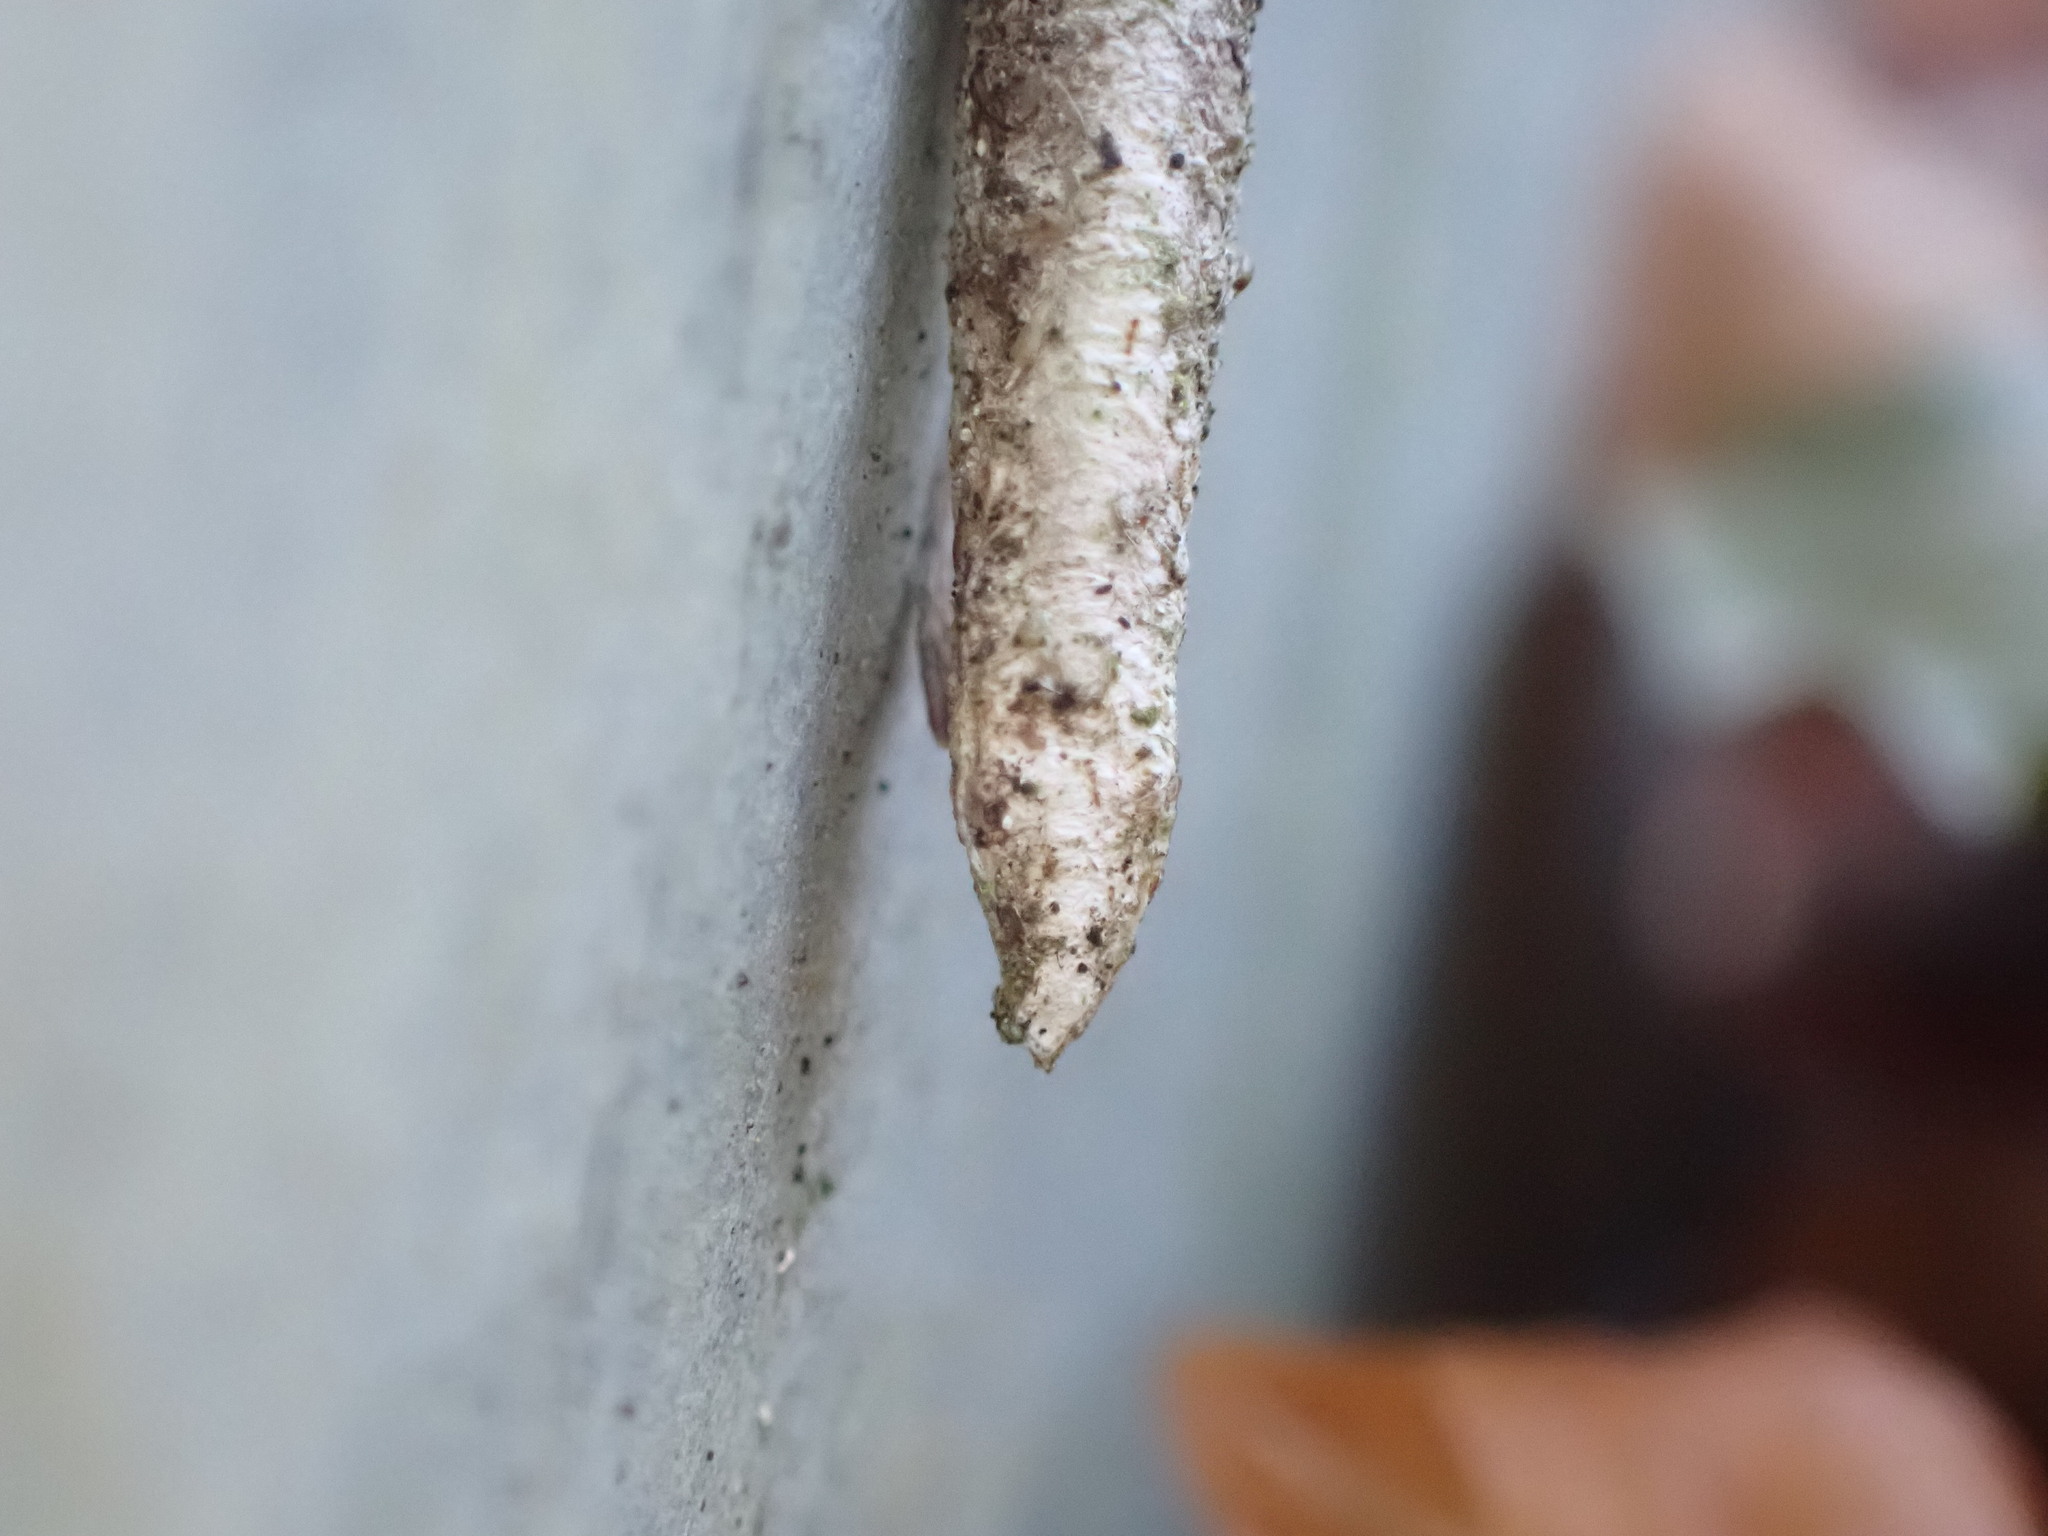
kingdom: Animalia
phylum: Arthropoda
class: Insecta
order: Lepidoptera
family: Psychidae
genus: Taleporia
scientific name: Taleporia tubulosa
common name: Brown smoke
